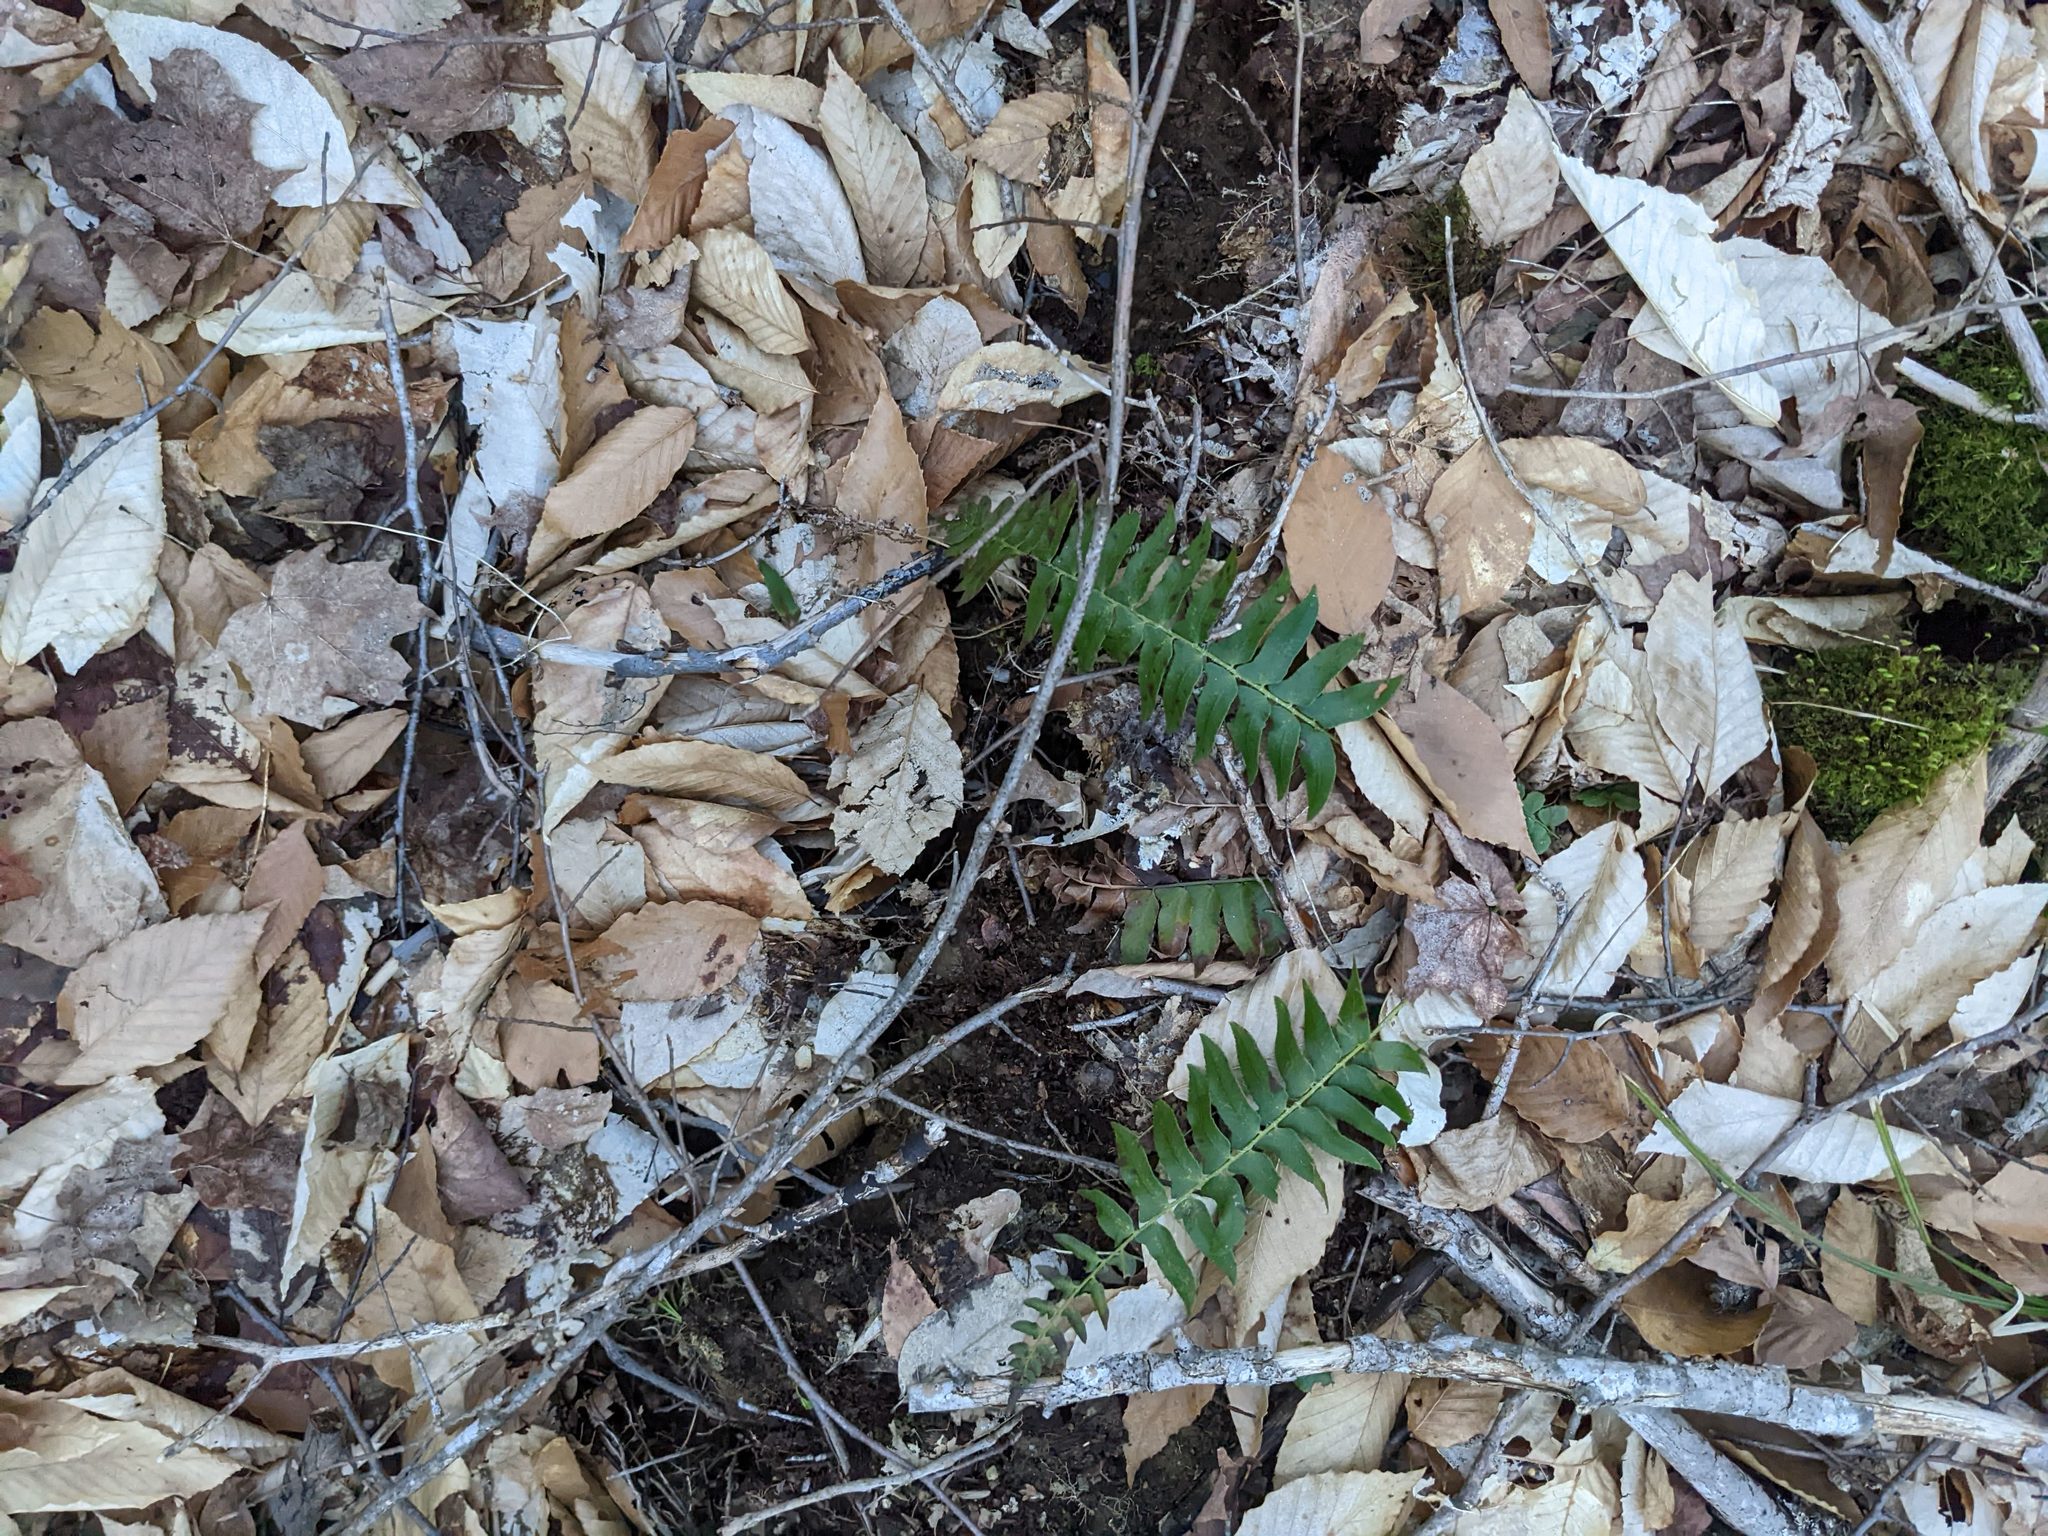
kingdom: Plantae
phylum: Tracheophyta
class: Magnoliopsida
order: Fagales
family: Fagaceae
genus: Fagus
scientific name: Fagus grandifolia
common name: American beech
